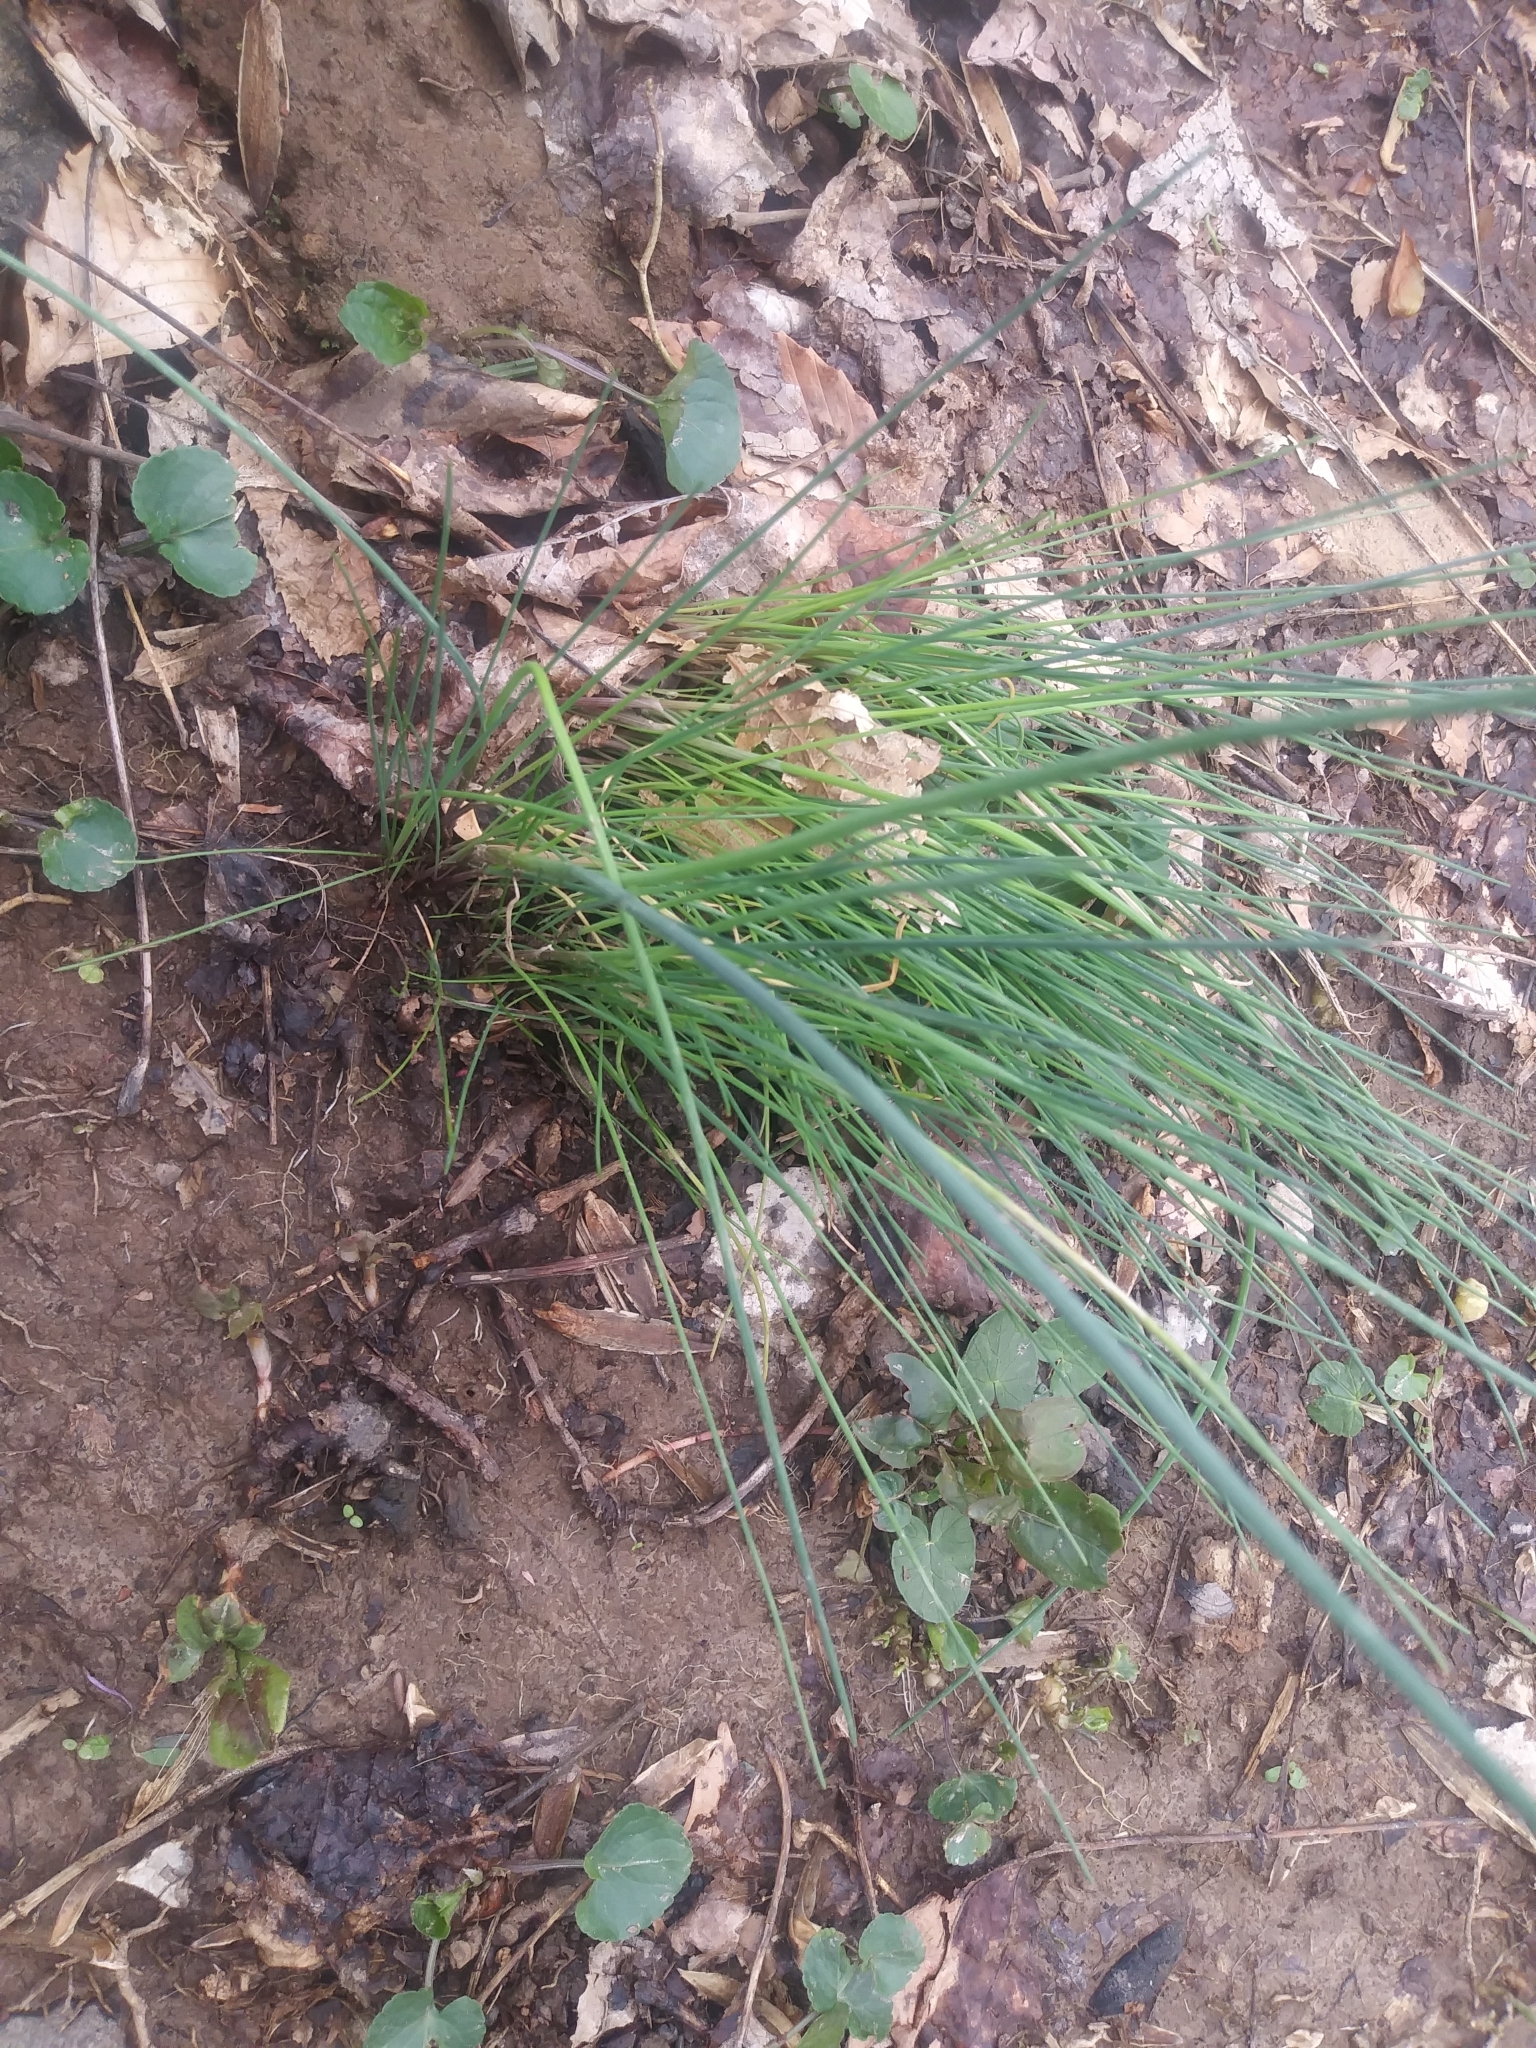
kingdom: Plantae
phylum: Tracheophyta
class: Liliopsida
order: Asparagales
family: Amaryllidaceae
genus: Allium
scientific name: Allium vineale
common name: Crow garlic
